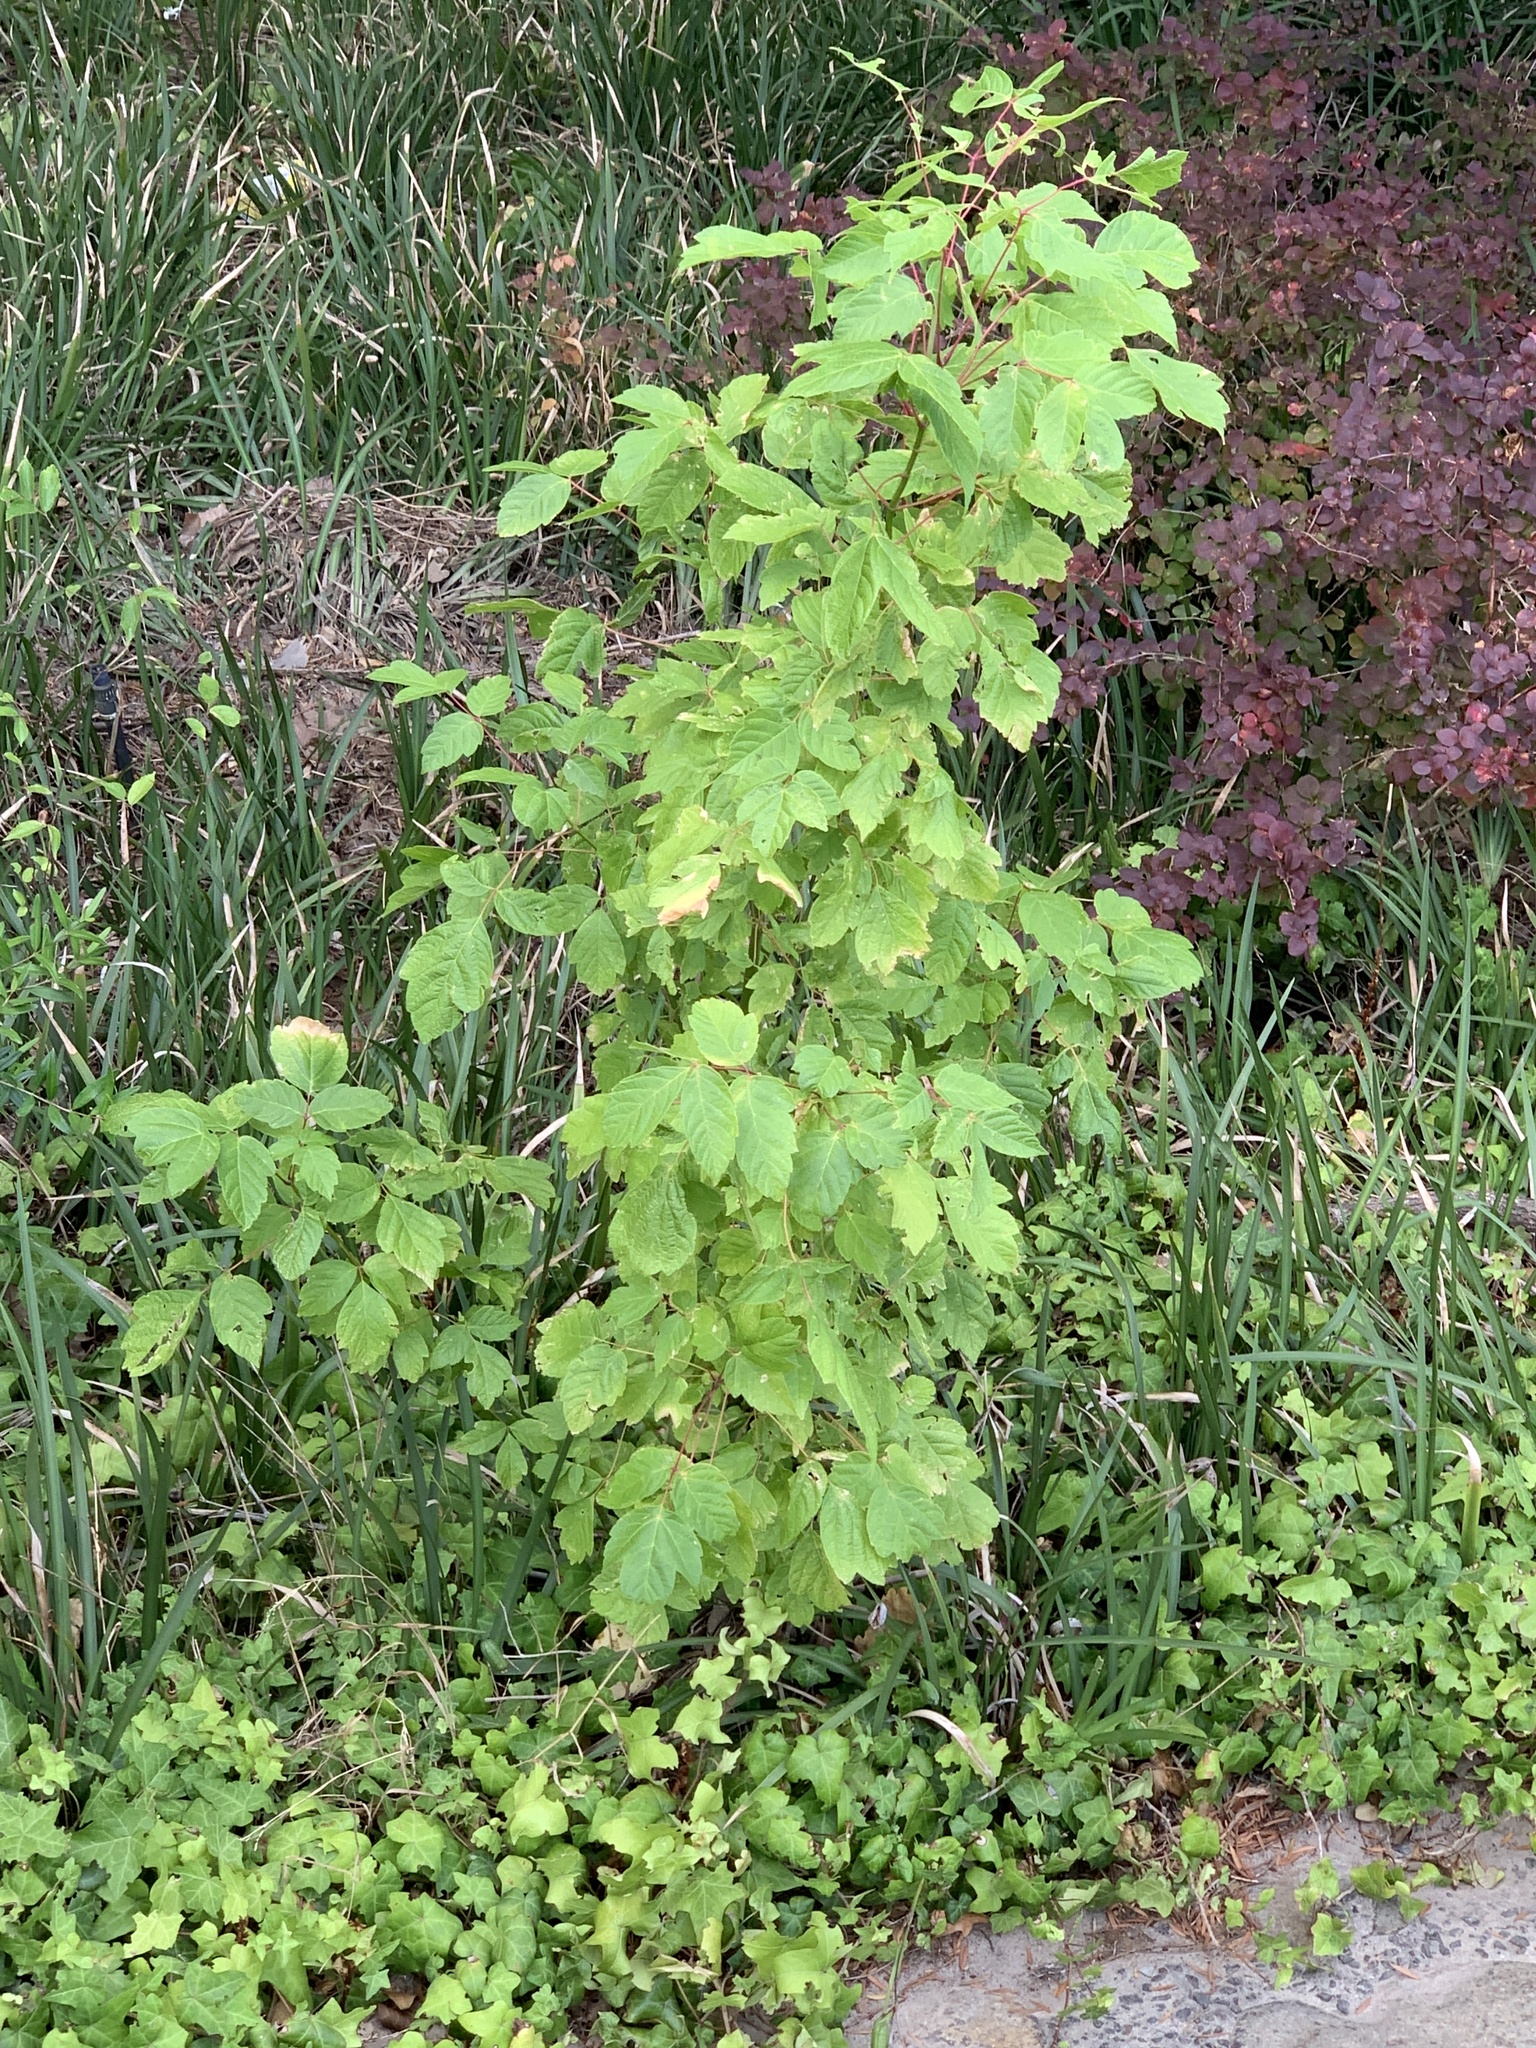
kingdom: Plantae
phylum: Tracheophyta
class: Magnoliopsida
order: Sapindales
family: Sapindaceae
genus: Acer
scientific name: Acer negundo
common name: Ashleaf maple
